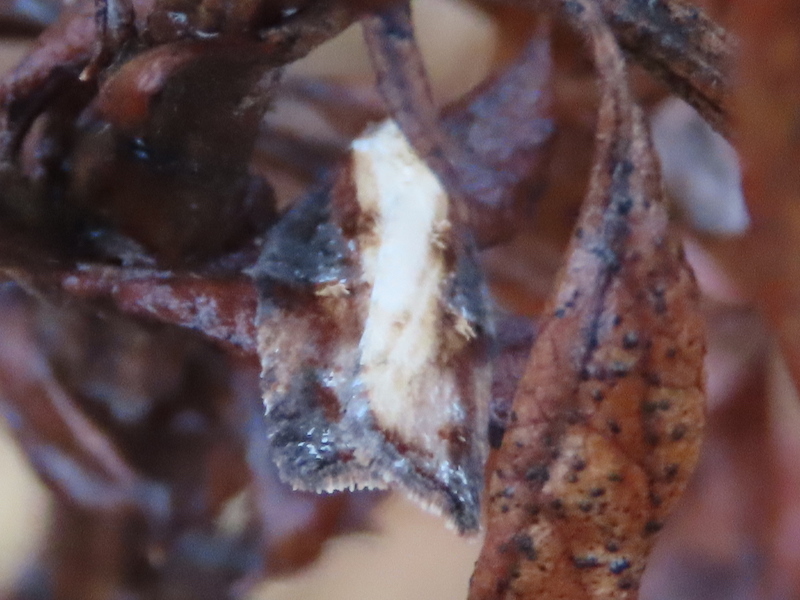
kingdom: Animalia
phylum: Arthropoda
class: Insecta
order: Lepidoptera
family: Tortricidae
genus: Acleris
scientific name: Acleris robinsoniana
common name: Robinson's acleris moth
